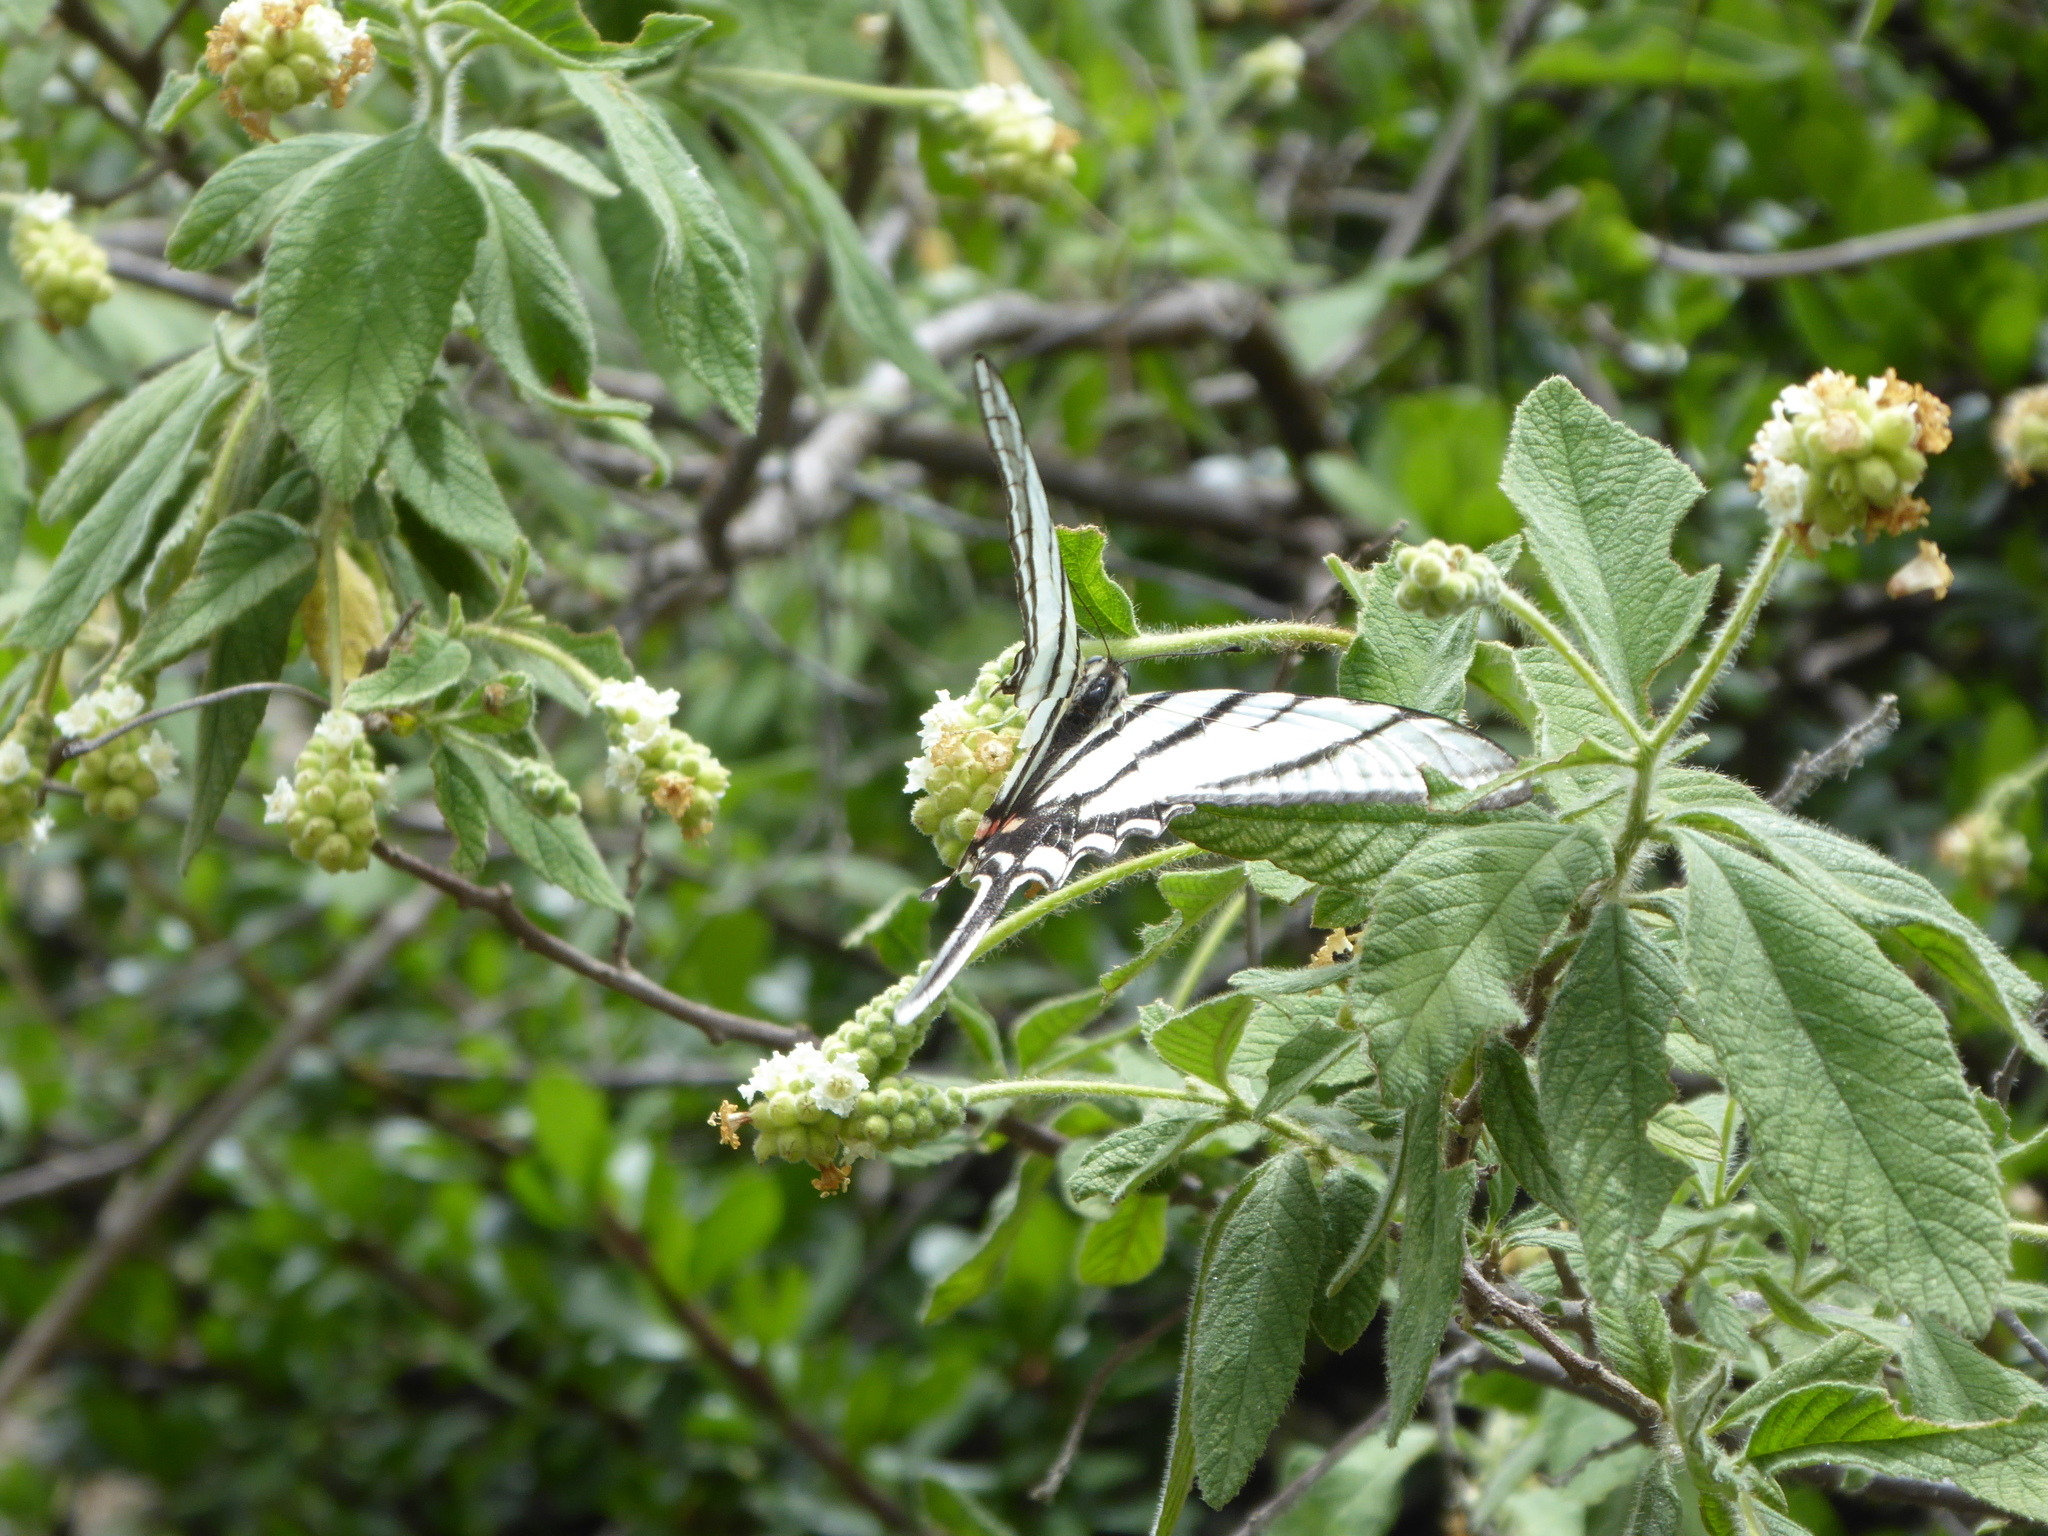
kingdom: Animalia
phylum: Arthropoda
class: Insecta
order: Lepidoptera
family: Papilionidae
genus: Protographium
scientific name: Protographium epidaus
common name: Mexican kite swallowtail
